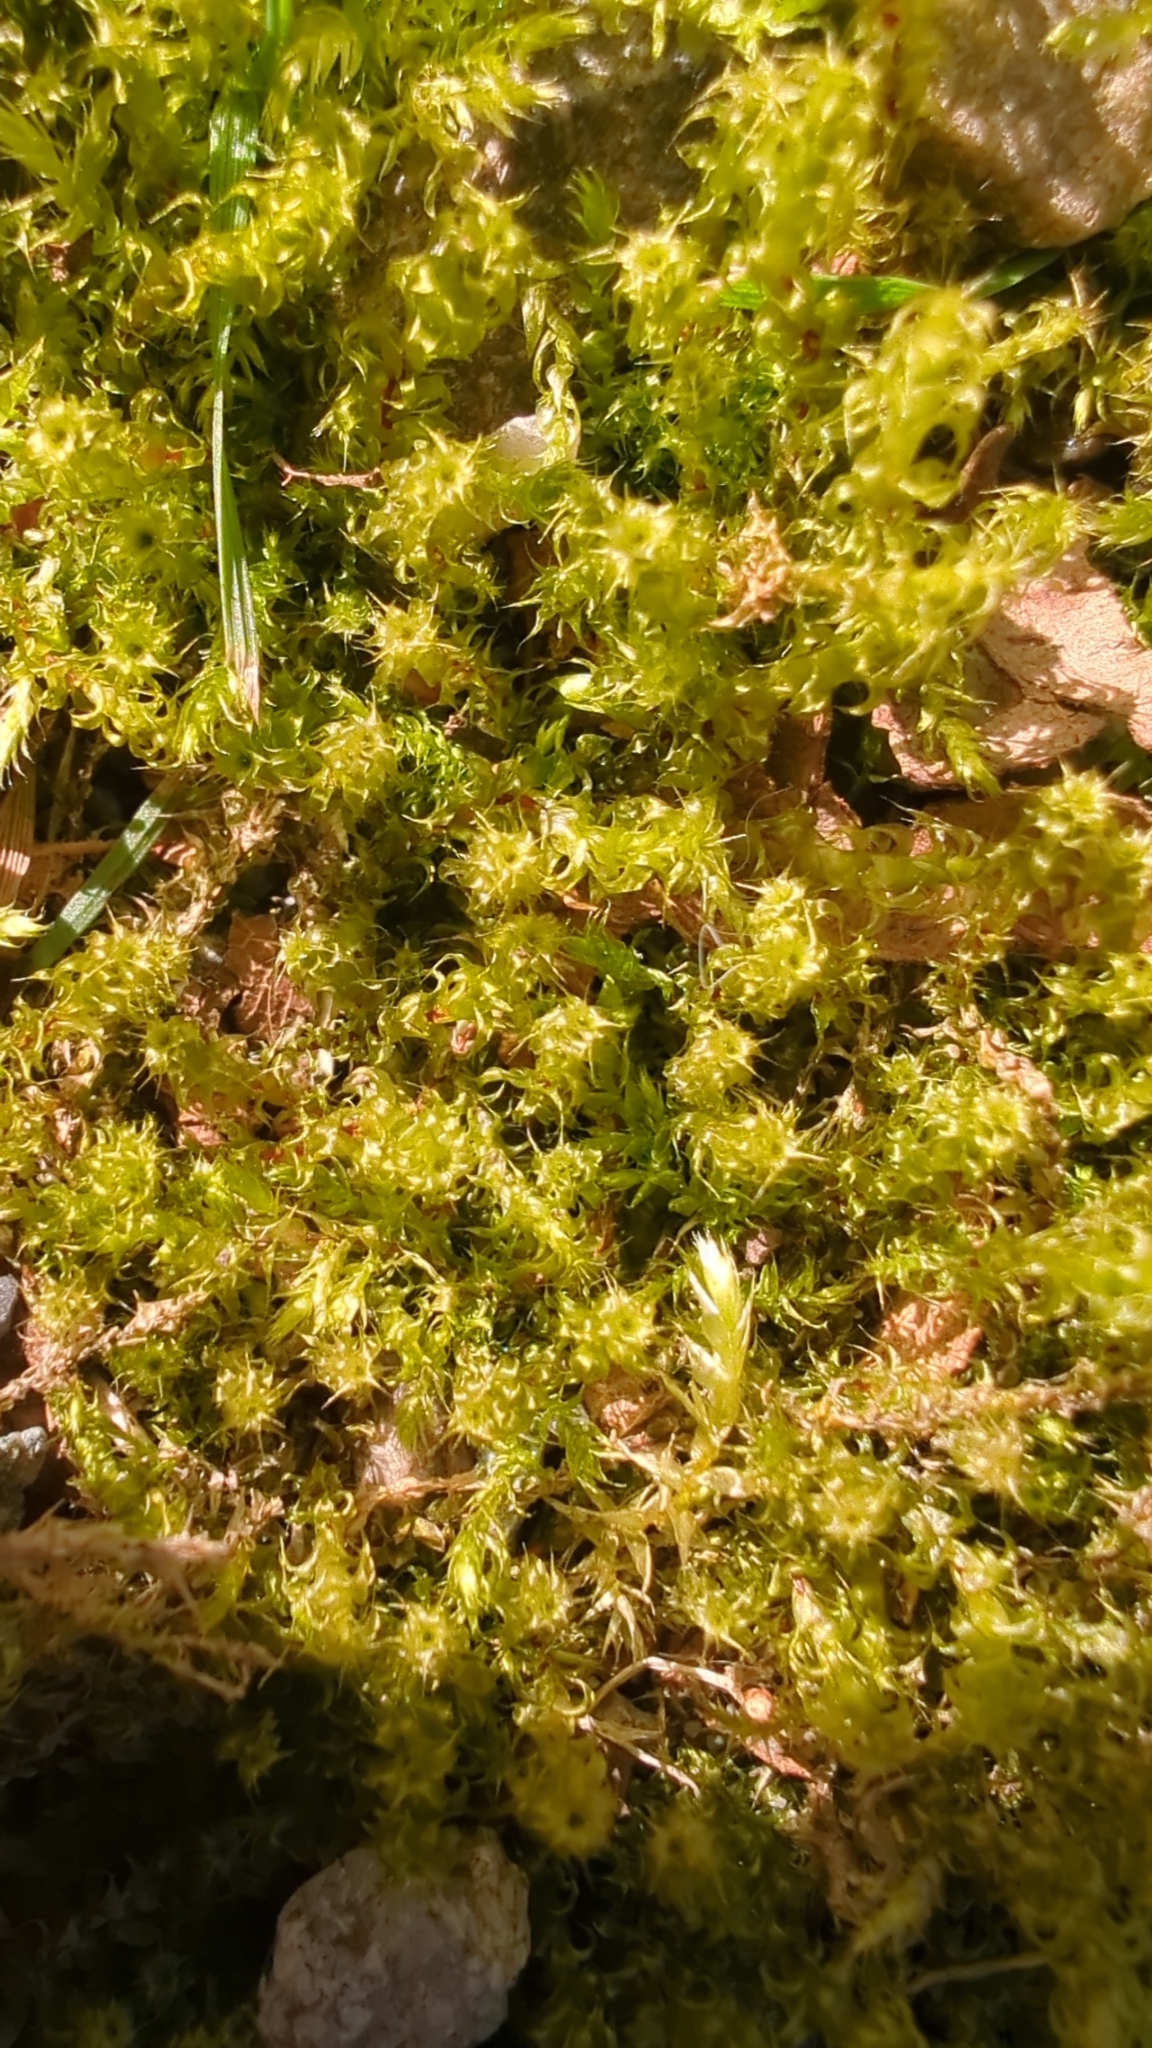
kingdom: Plantae
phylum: Bryophyta
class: Bryopsida
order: Hypnales
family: Hylocomiaceae
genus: Rhytidiadelphus
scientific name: Rhytidiadelphus squarrosus
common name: Springy turf-moss
